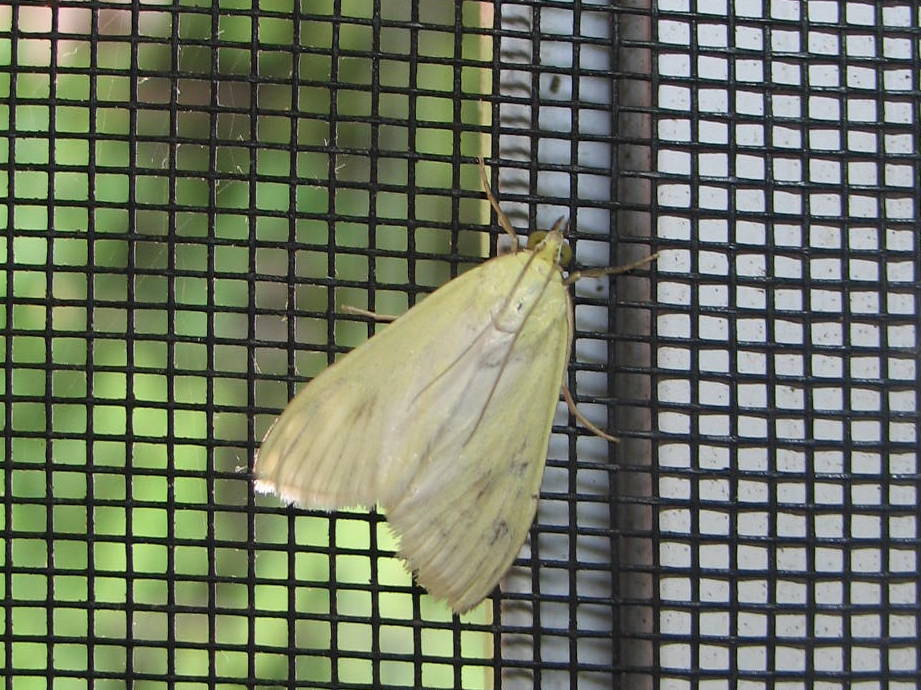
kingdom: Animalia
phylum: Arthropoda
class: Insecta
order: Lepidoptera
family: Crambidae
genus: Sitochroa
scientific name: Sitochroa palealis
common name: Greenish-yellow sitochroa moth
